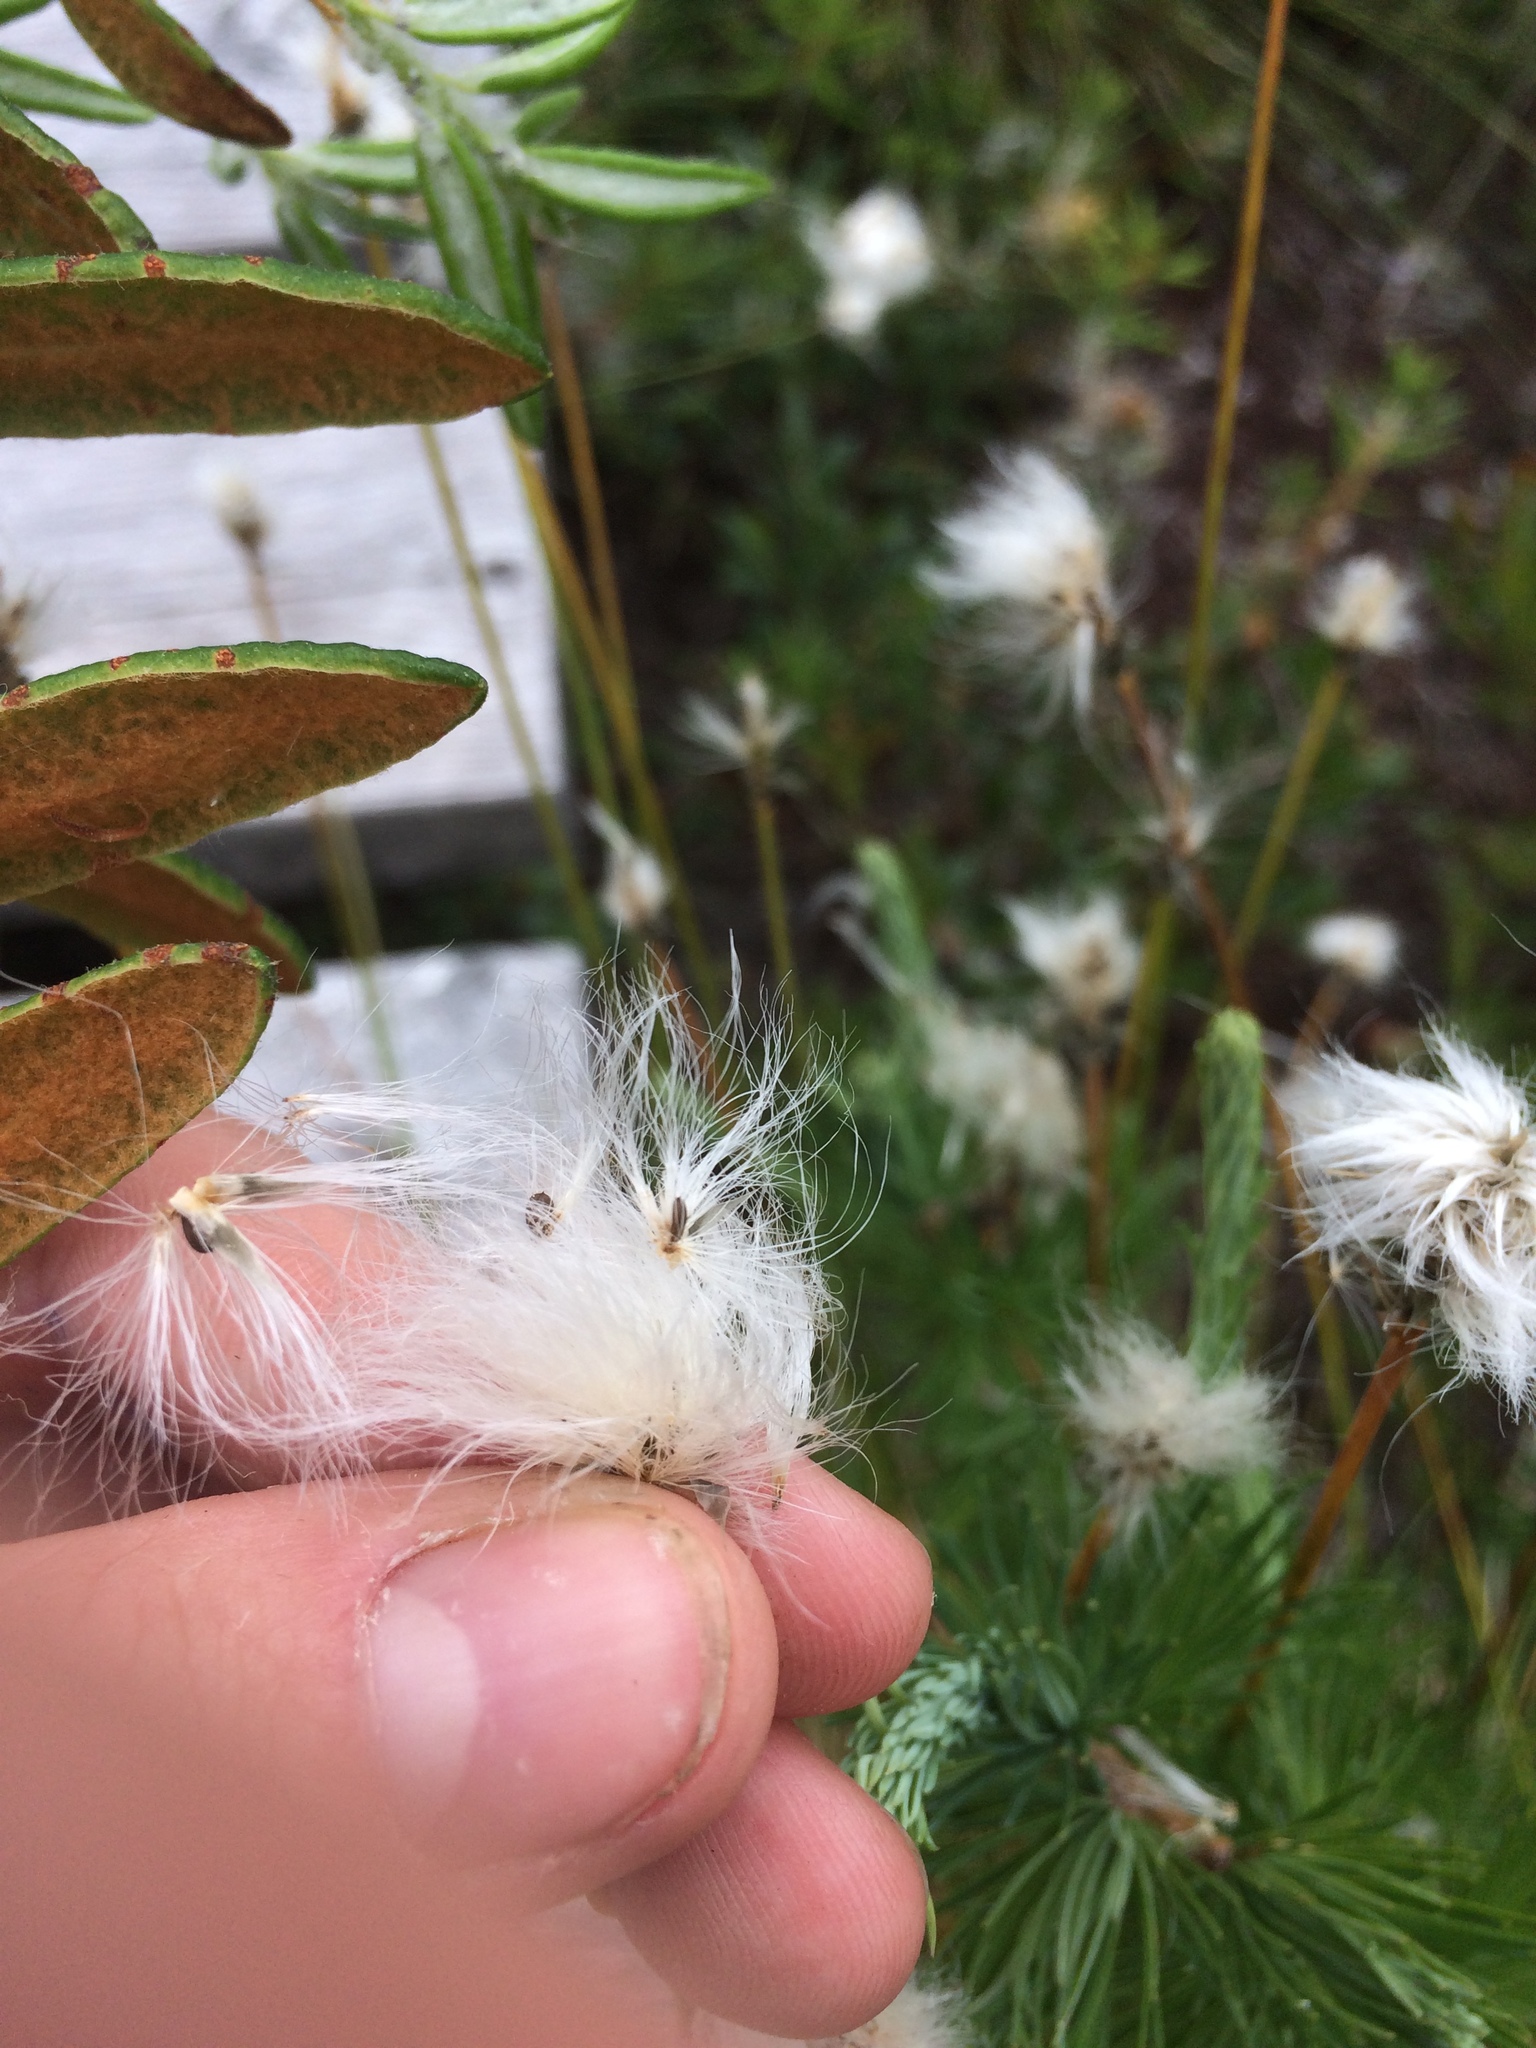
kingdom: Plantae
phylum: Tracheophyta
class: Liliopsida
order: Poales
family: Cyperaceae
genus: Eriophorum
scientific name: Eriophorum vaginatum
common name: Hare's-tail cottongrass
